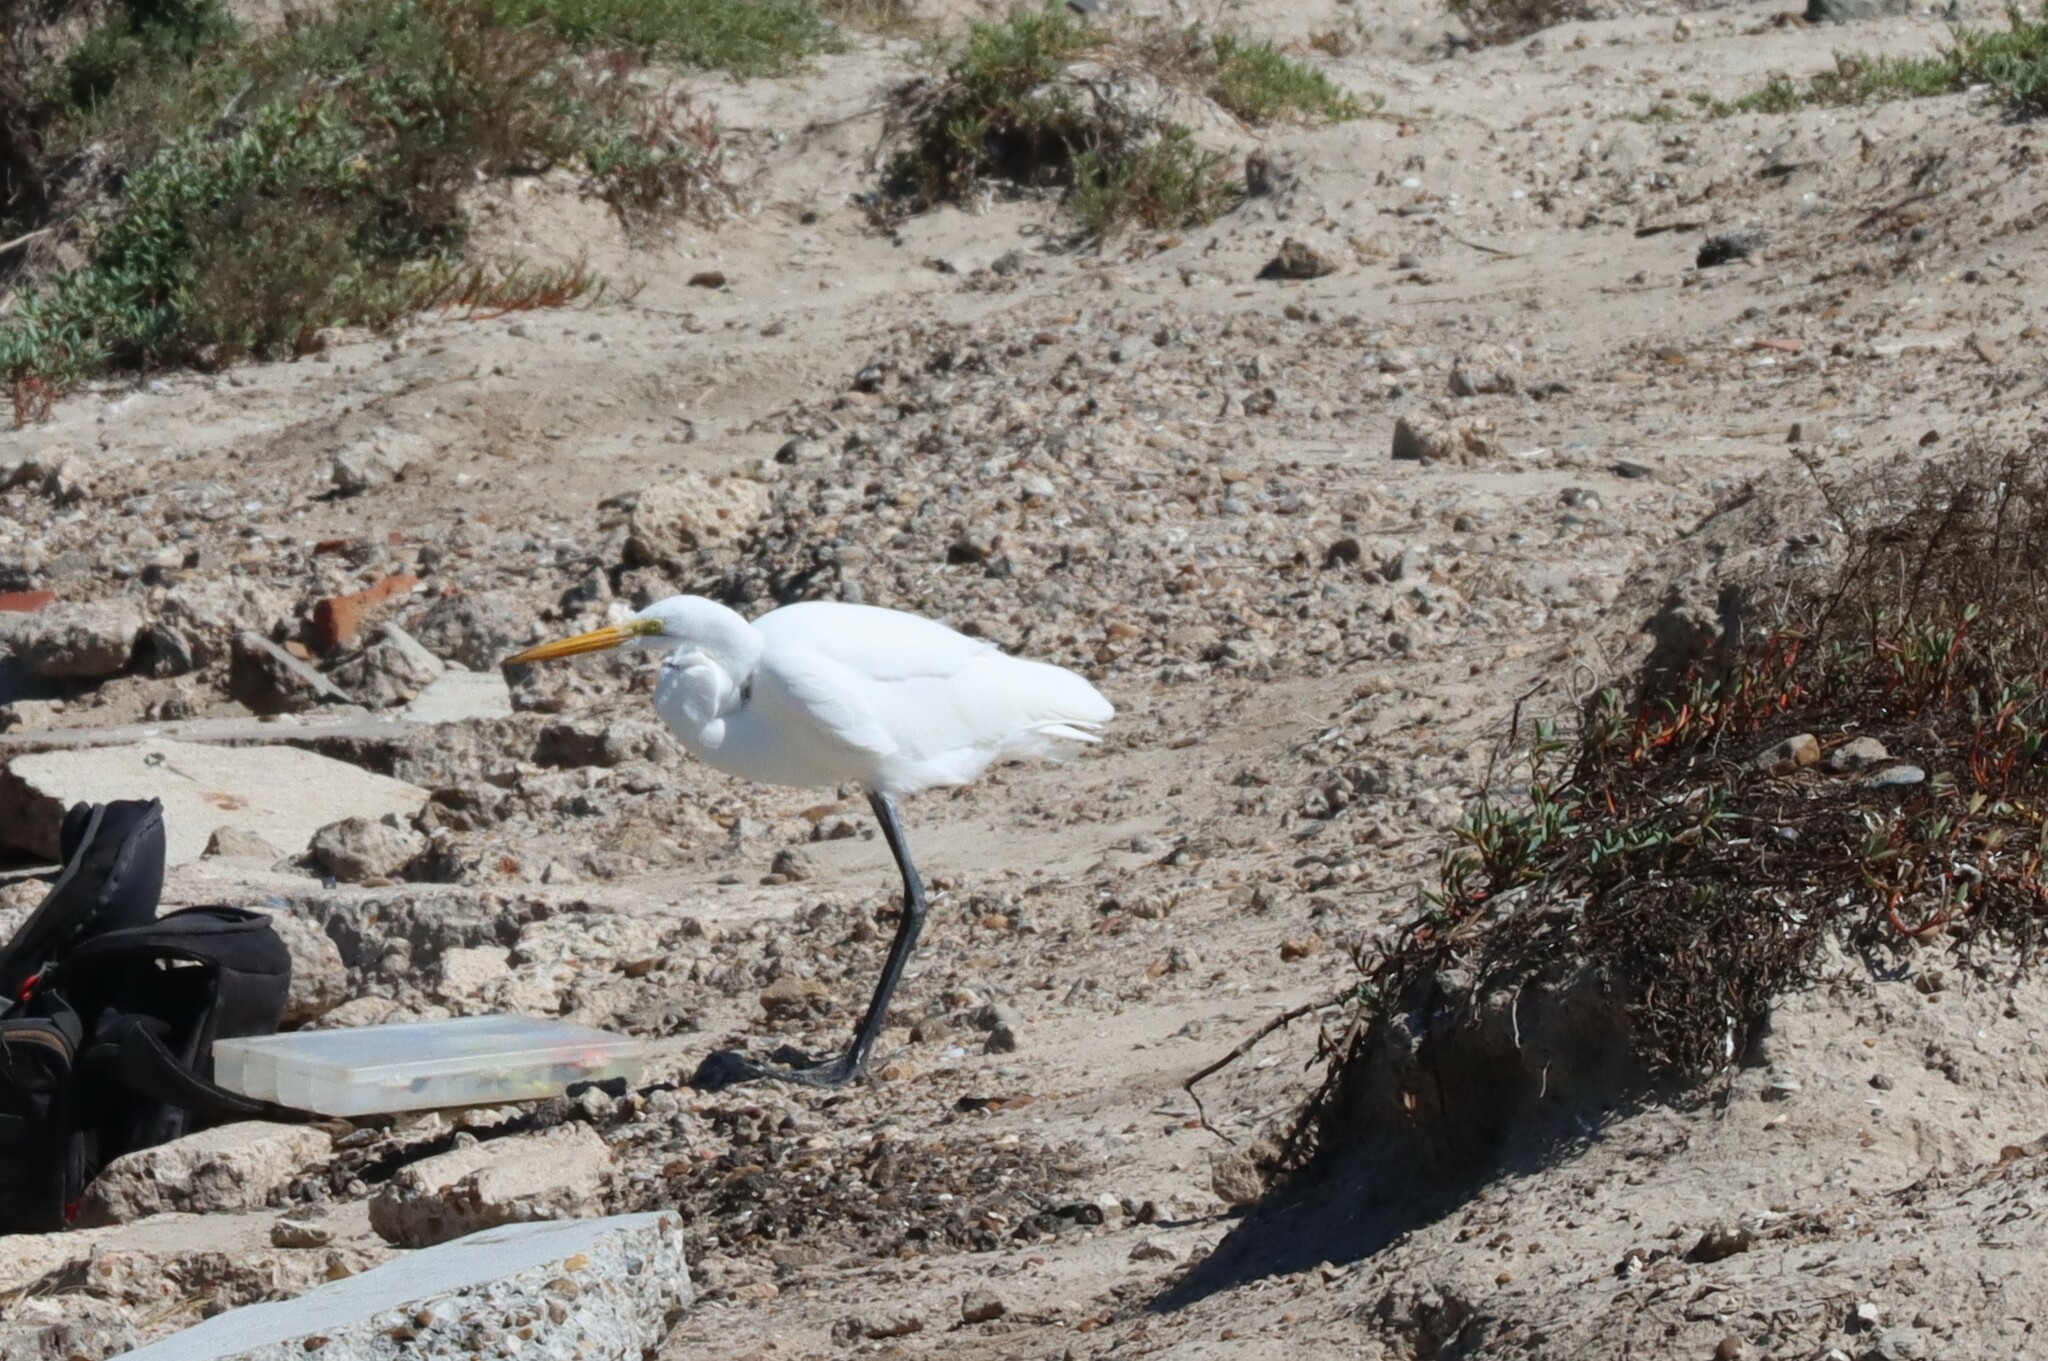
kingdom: Animalia
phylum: Chordata
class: Aves
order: Pelecaniformes
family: Ardeidae
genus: Ardea
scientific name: Ardea alba
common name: Great egret
